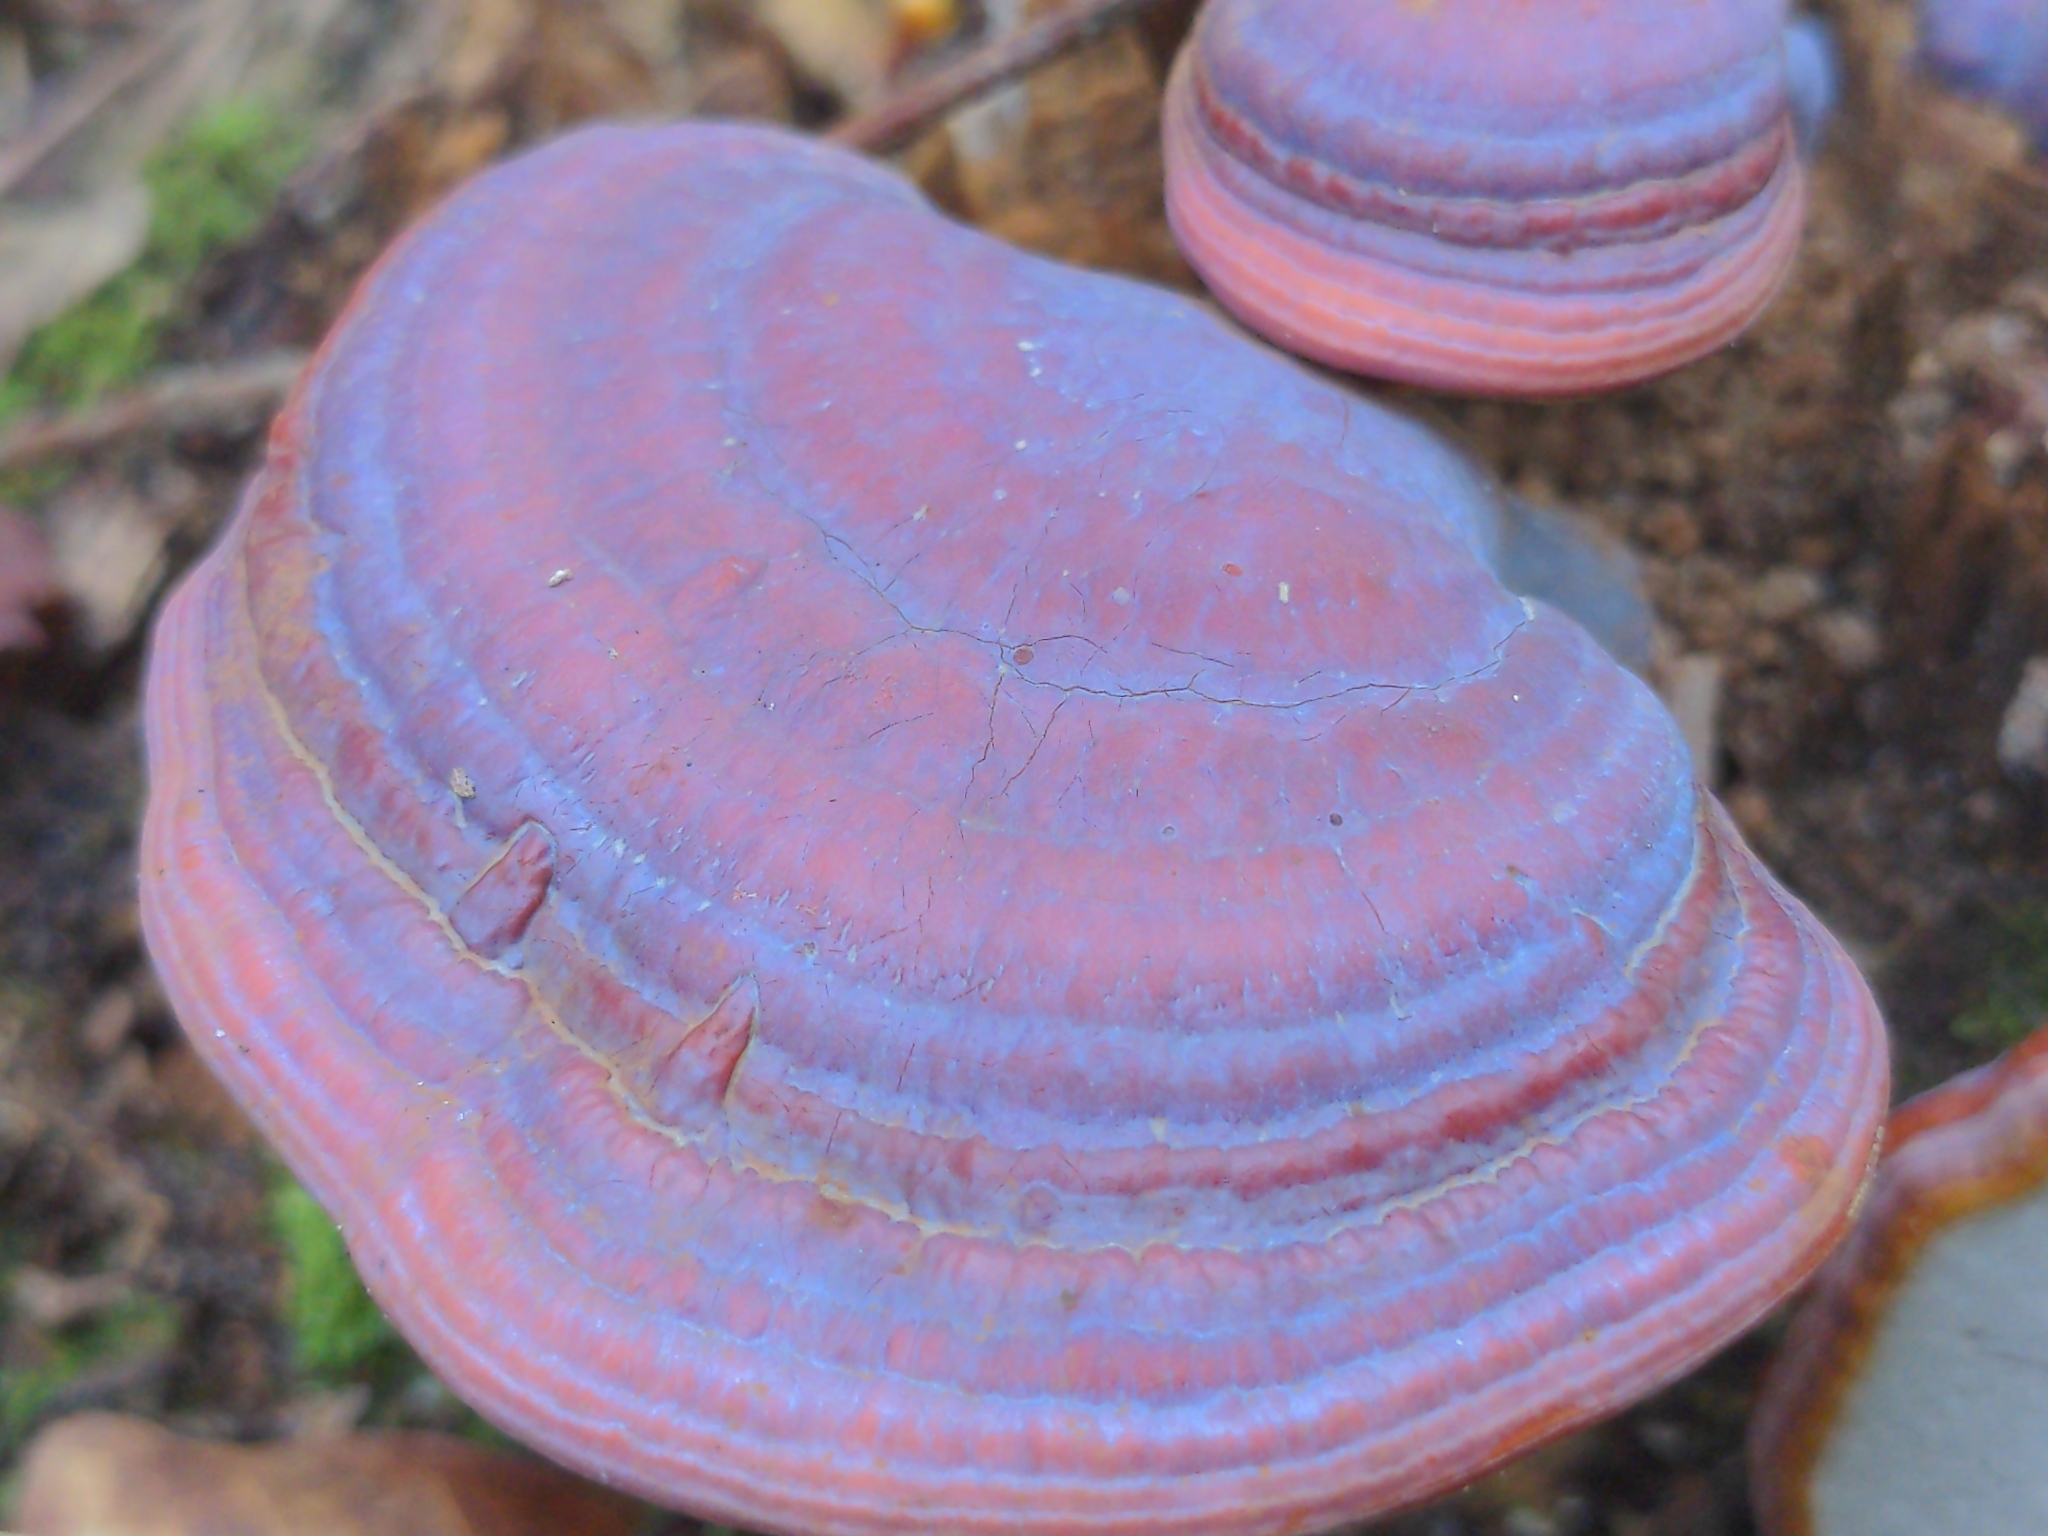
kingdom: Fungi
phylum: Basidiomycota
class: Agaricomycetes
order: Polyporales
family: Polyporaceae
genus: Ganoderma
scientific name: Ganoderma curtisii
